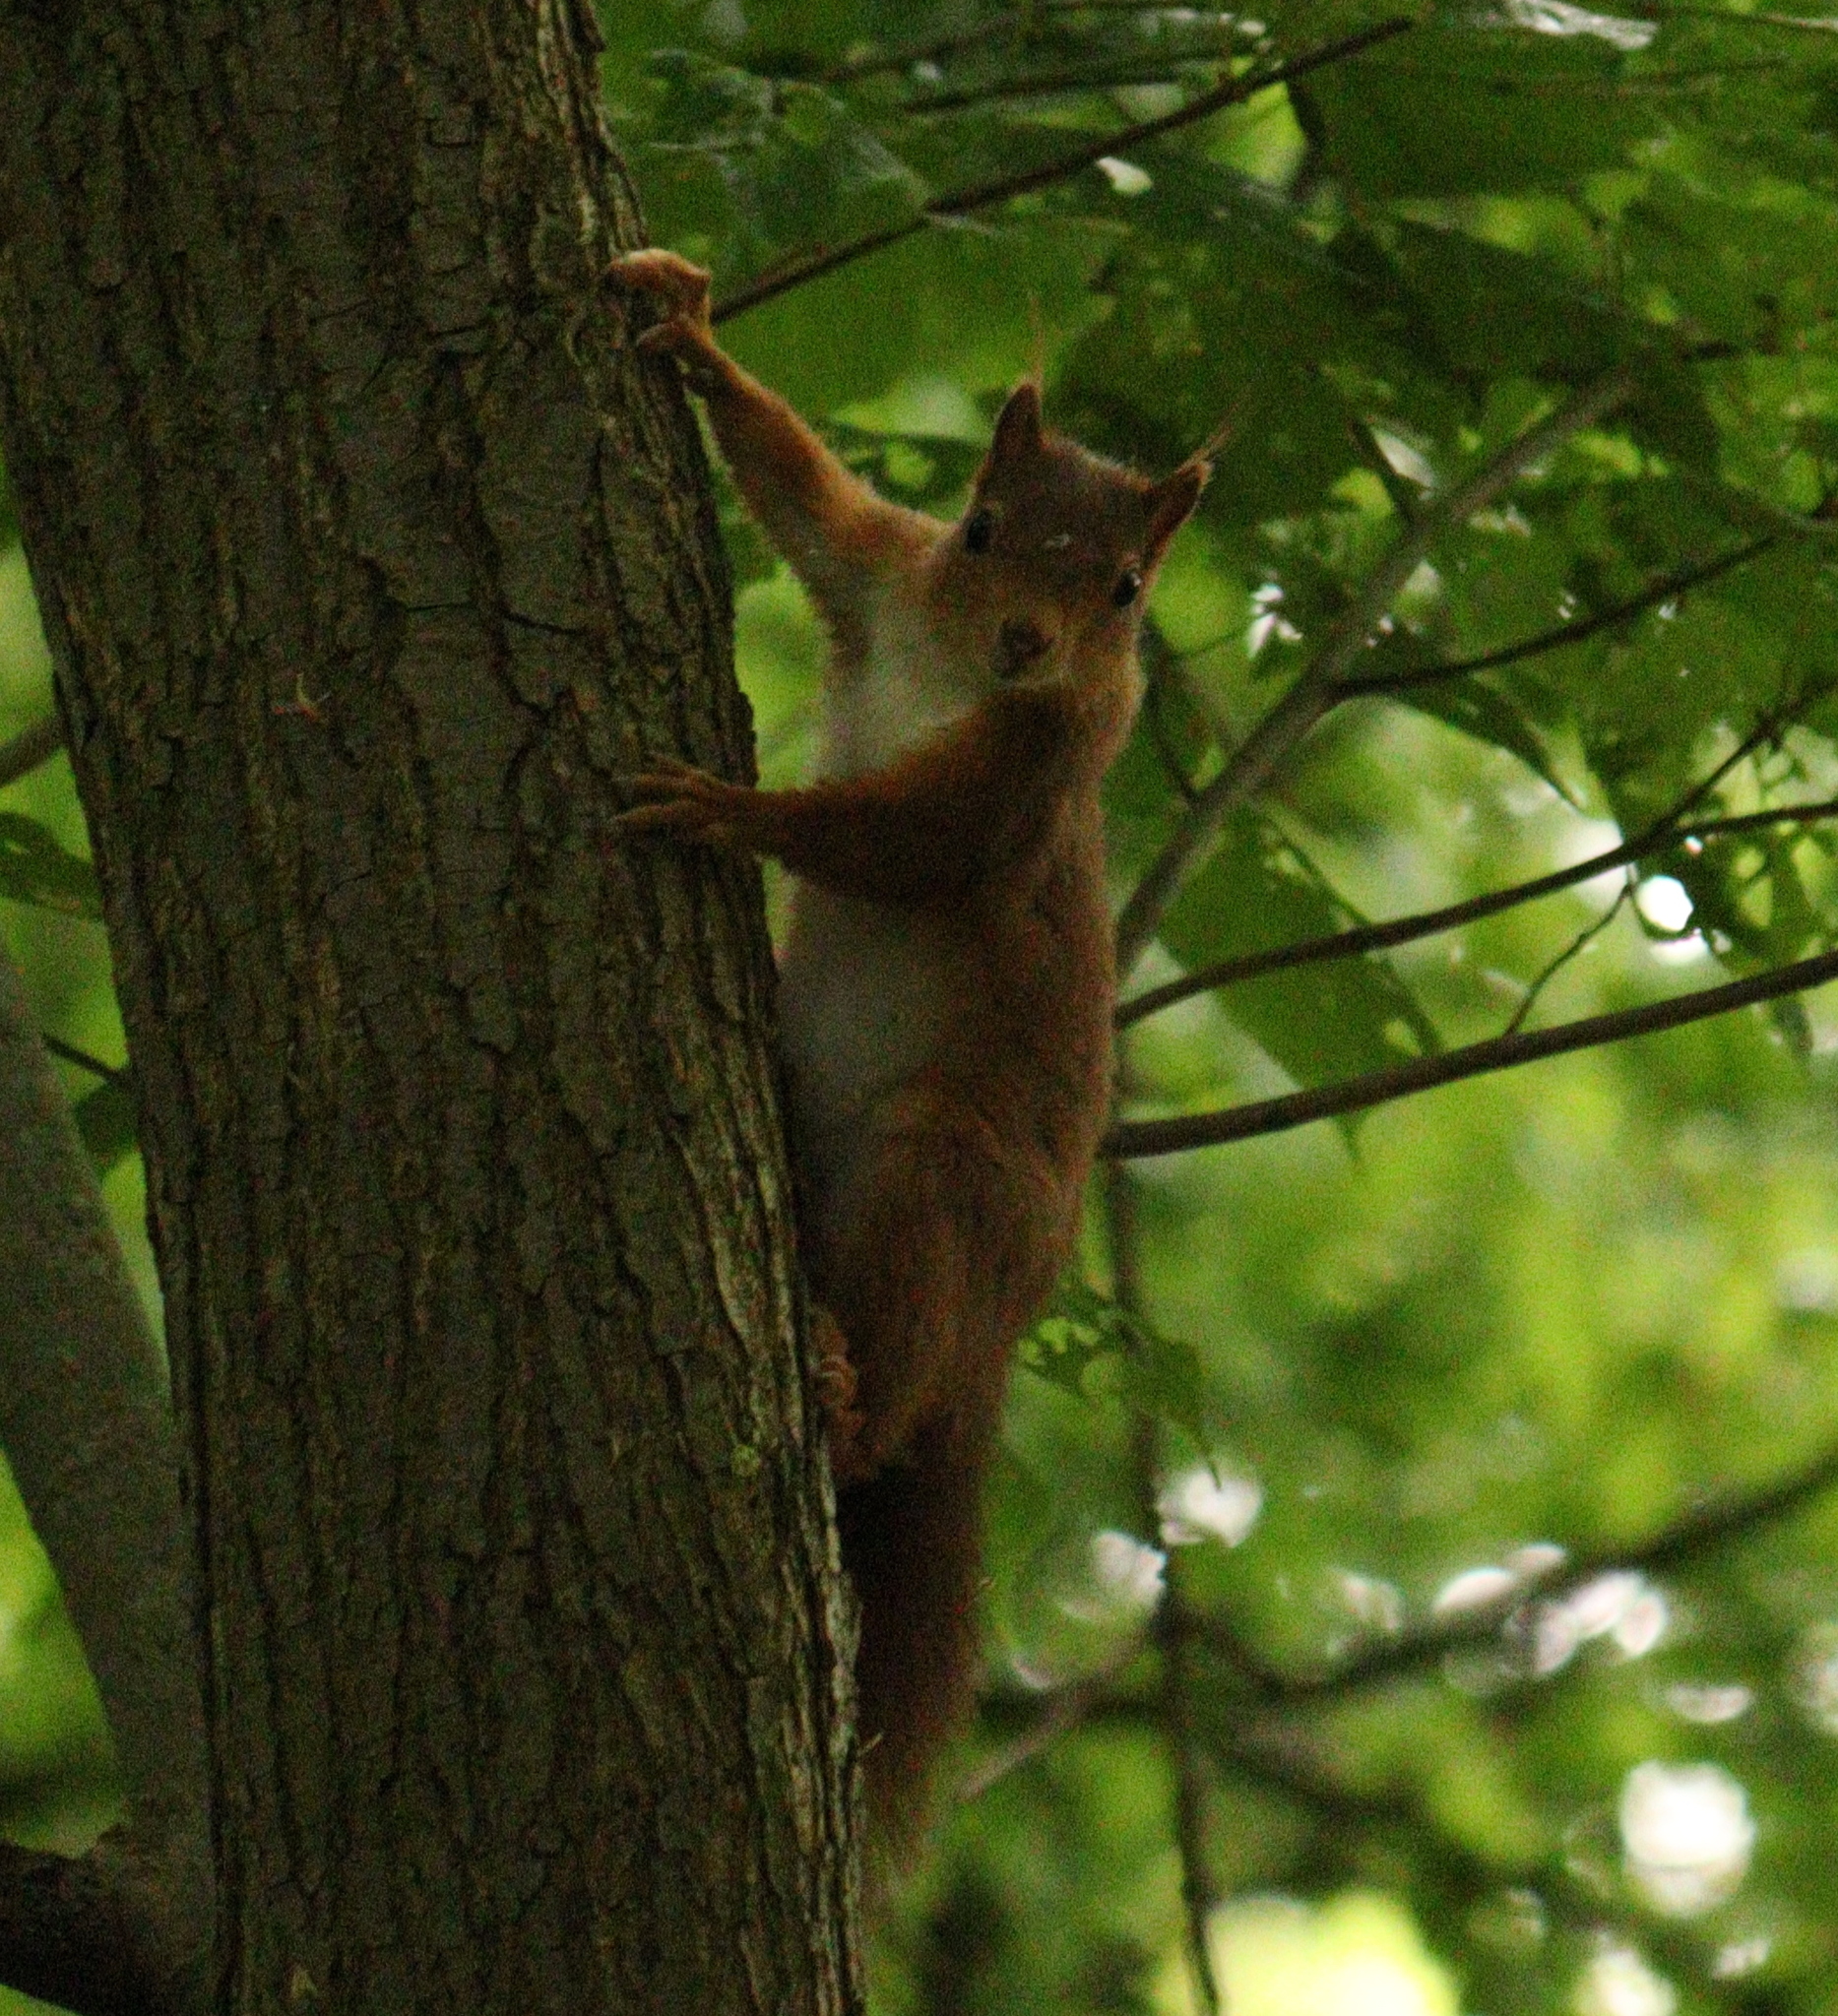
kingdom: Animalia
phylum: Chordata
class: Mammalia
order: Rodentia
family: Sciuridae
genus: Sciurus
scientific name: Sciurus vulgaris
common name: Eurasian red squirrel
